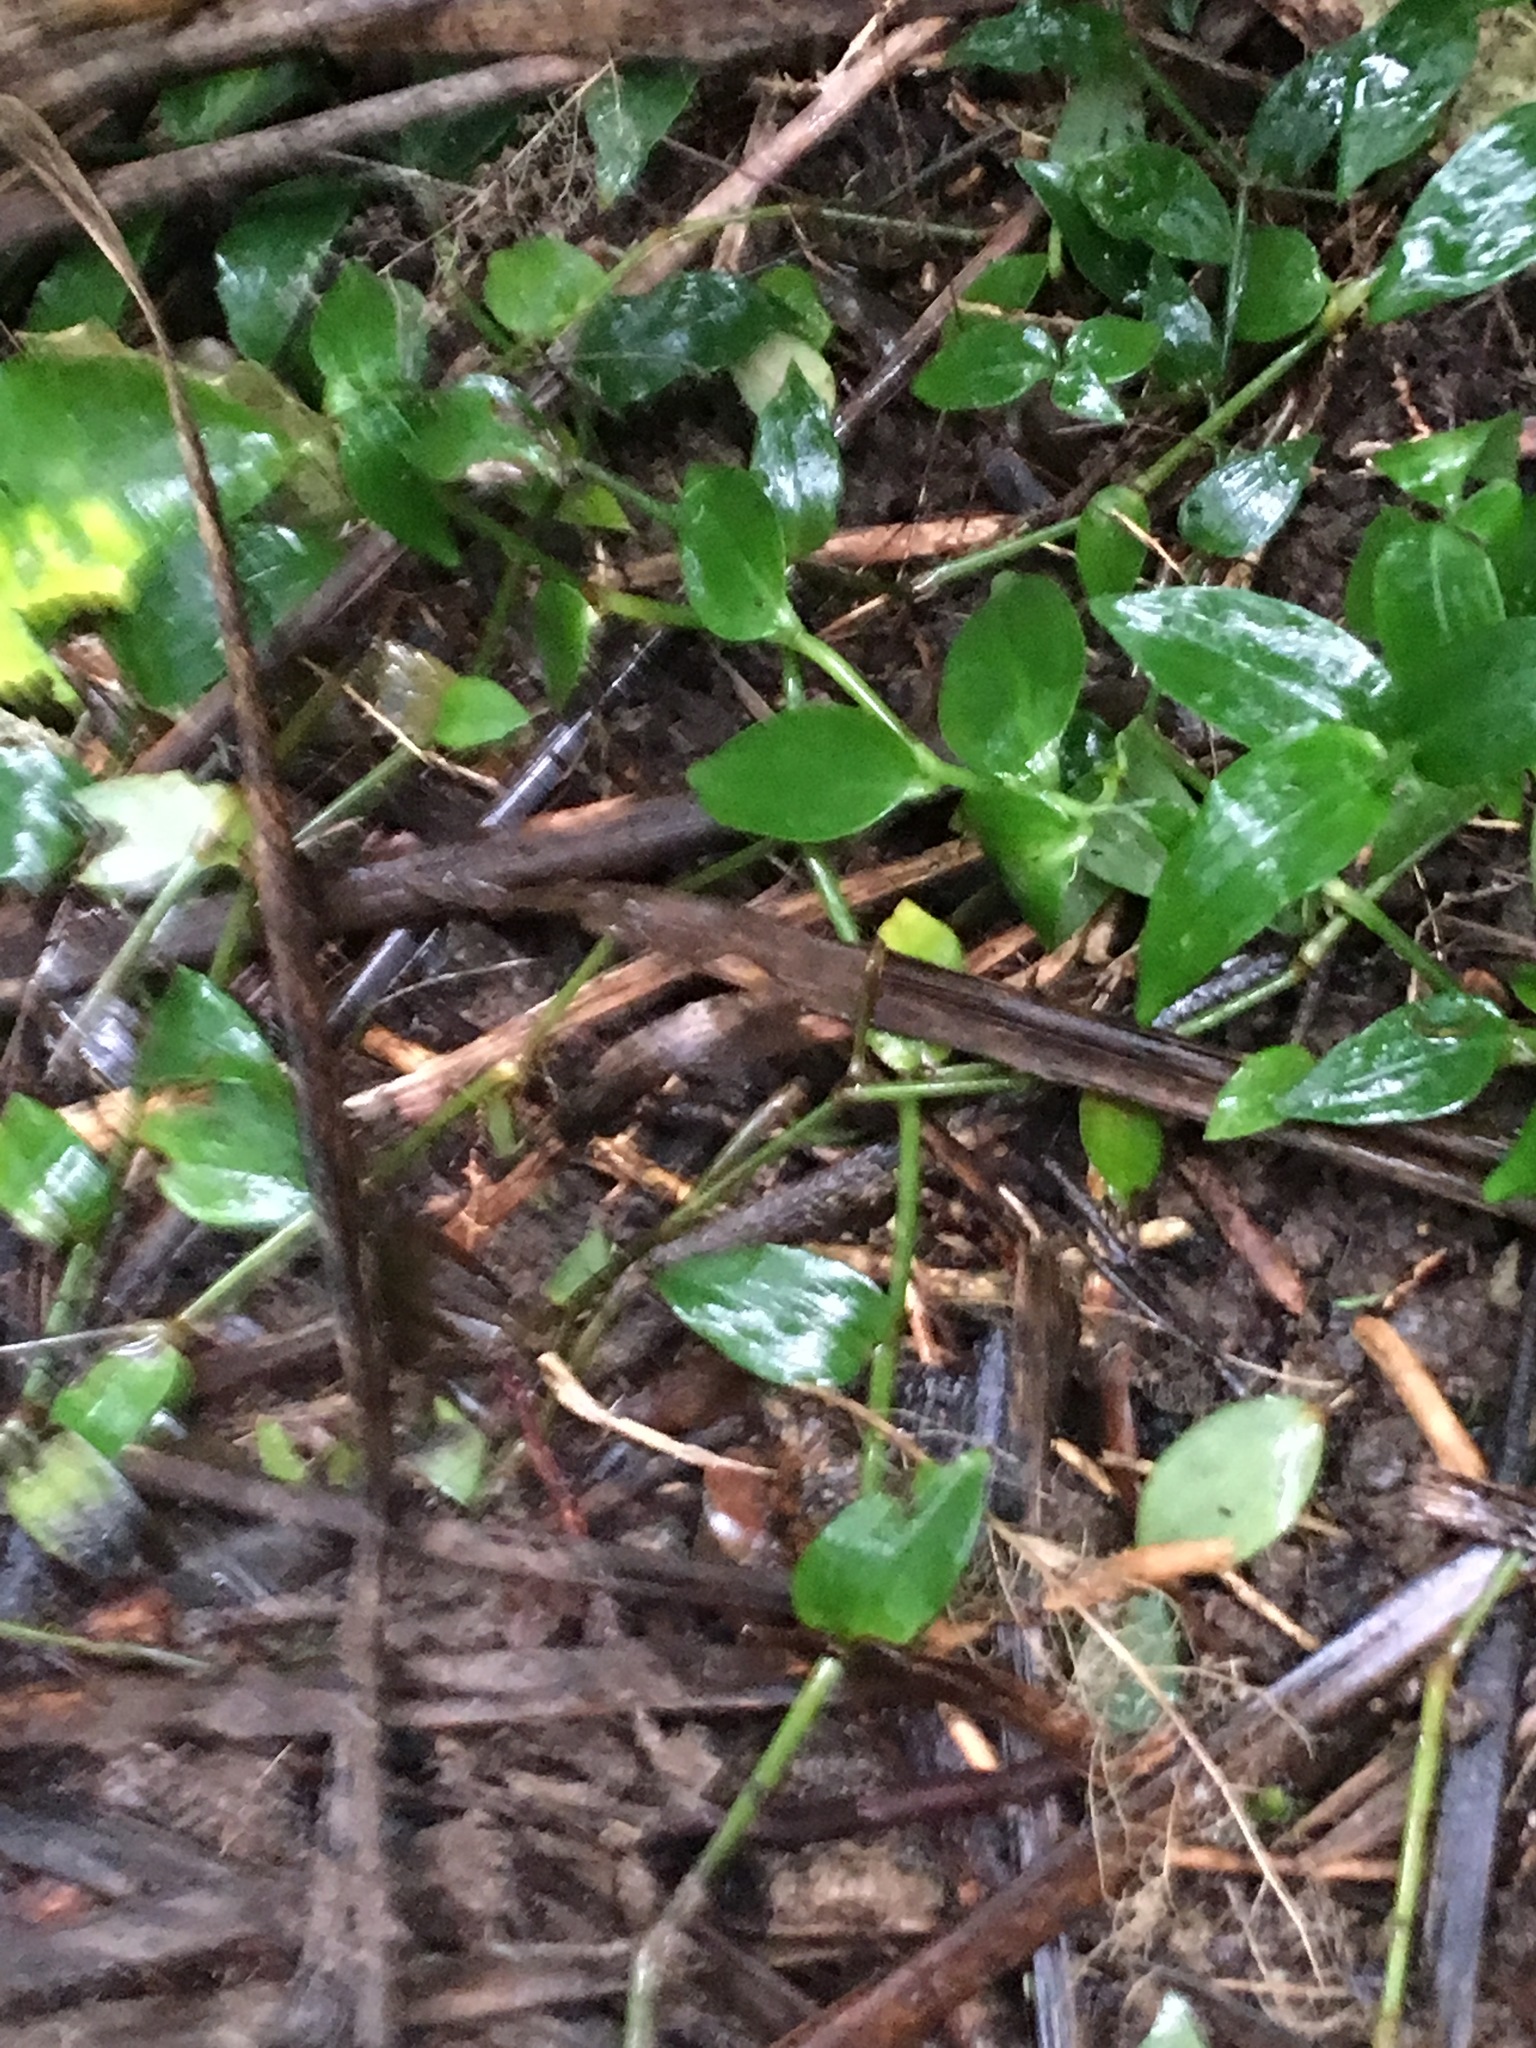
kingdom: Plantae
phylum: Tracheophyta
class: Liliopsida
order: Commelinales
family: Commelinaceae
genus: Tradescantia
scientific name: Tradescantia fluminensis
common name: Wandering-jew
